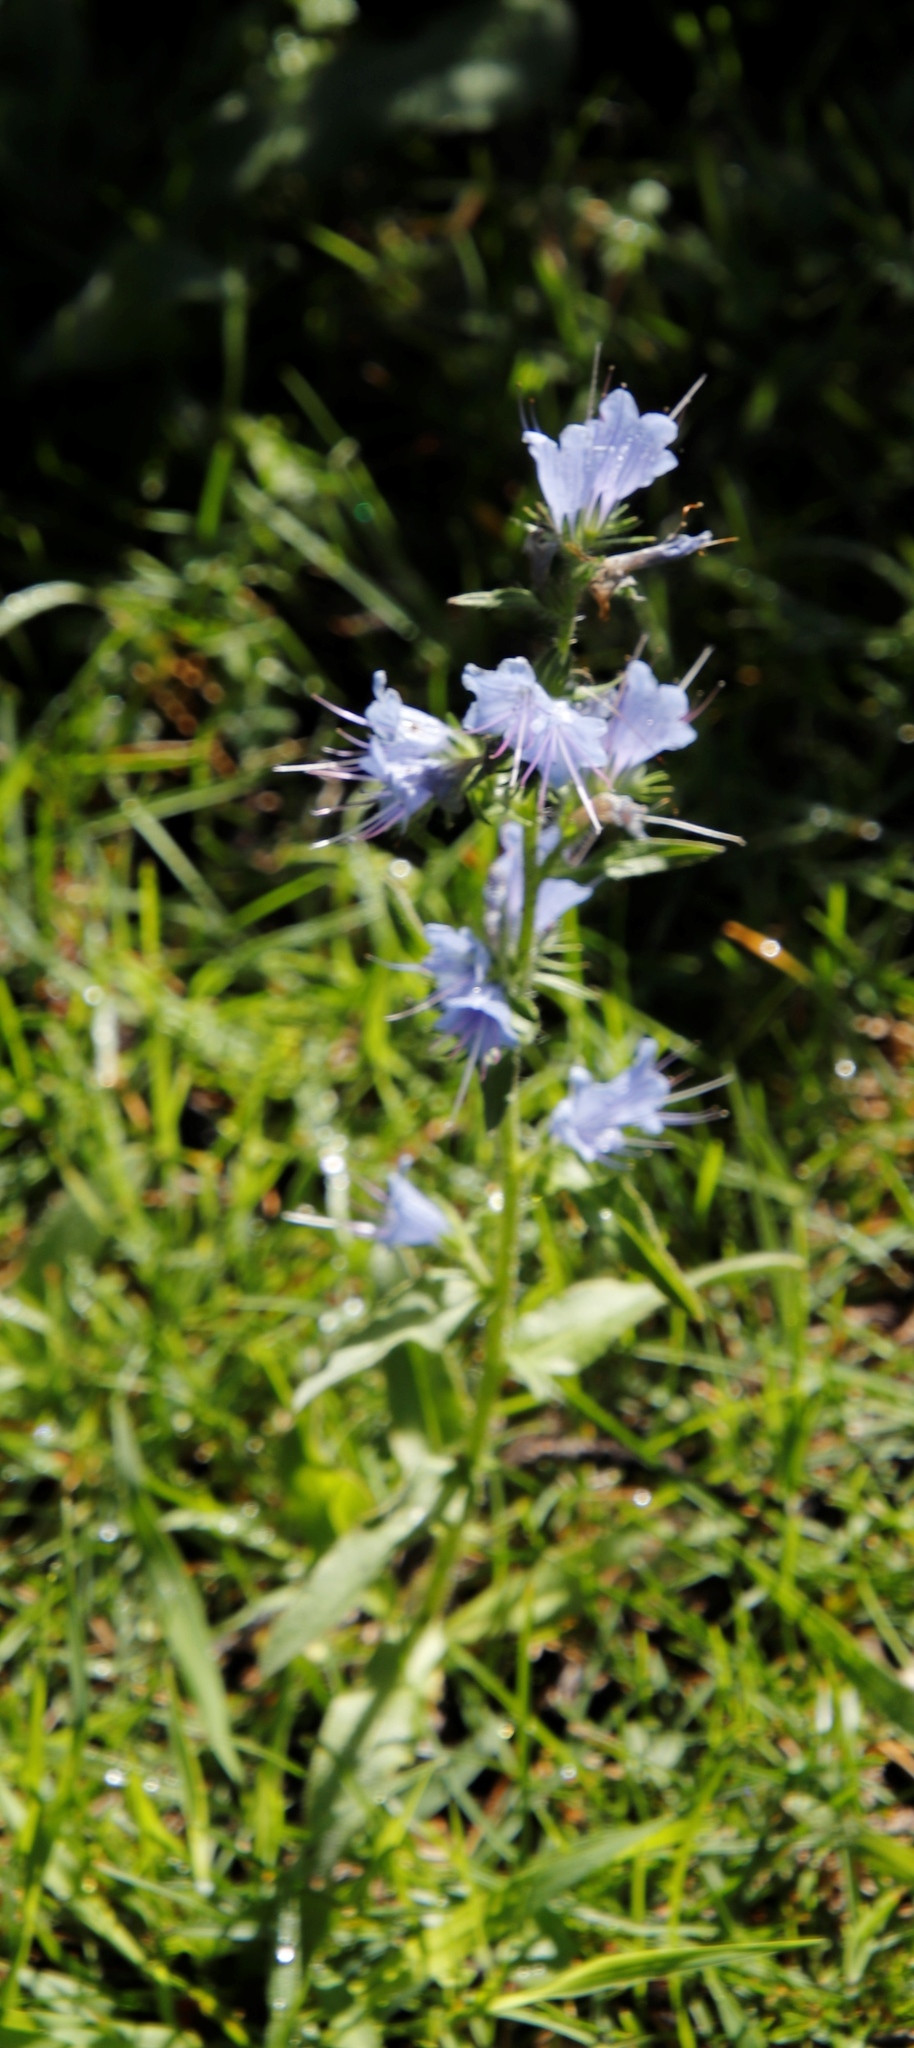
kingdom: Plantae
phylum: Tracheophyta
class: Magnoliopsida
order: Boraginales
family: Boraginaceae
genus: Echium
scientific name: Echium vulgare
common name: Common viper's bugloss
